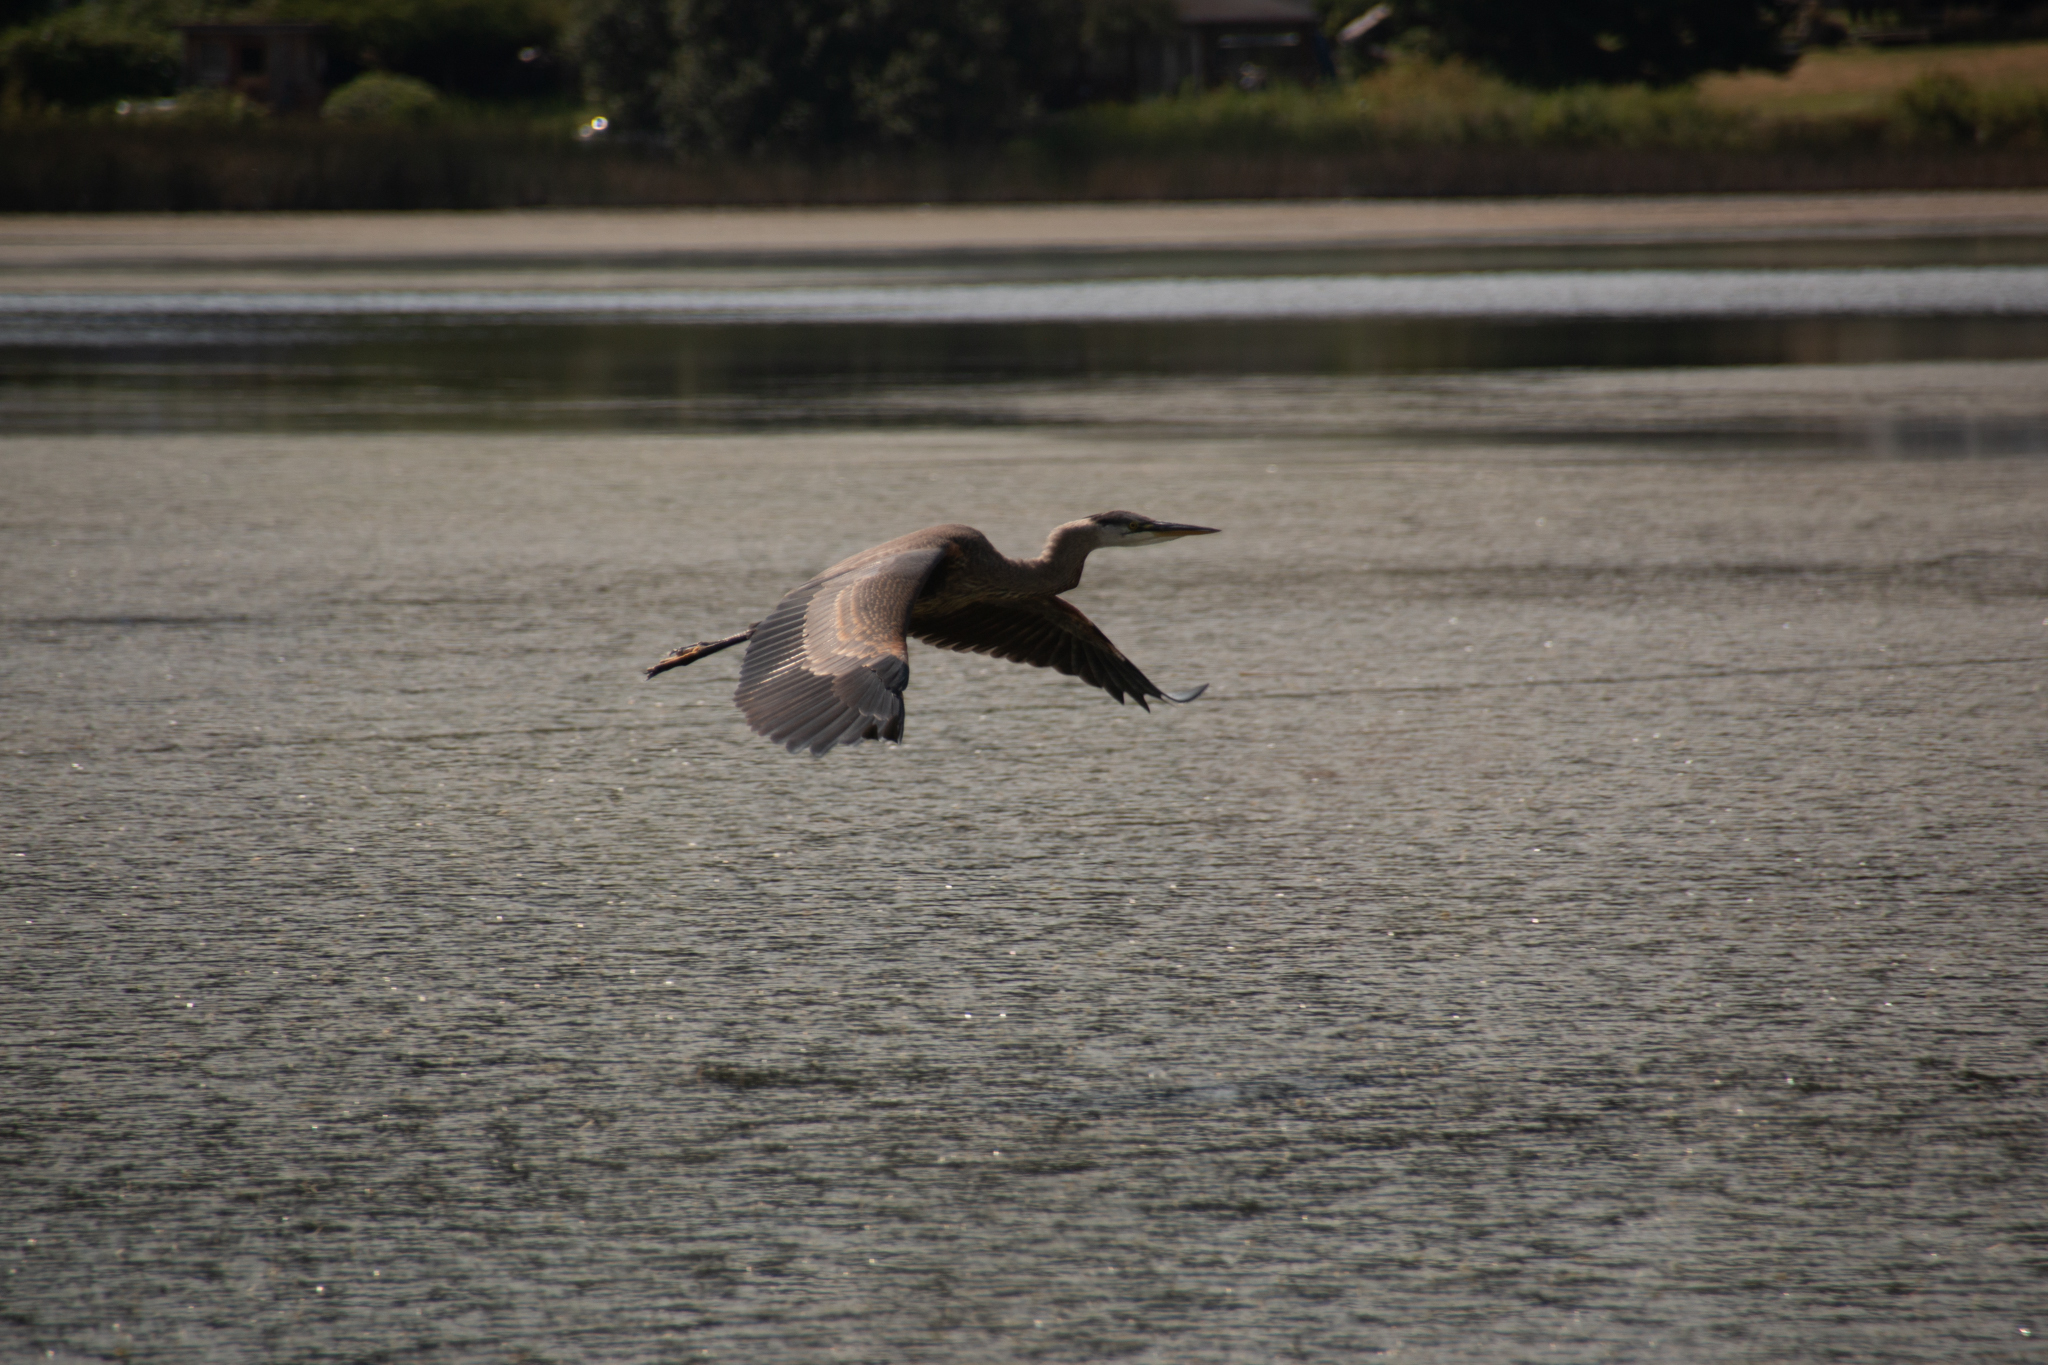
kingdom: Animalia
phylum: Chordata
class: Aves
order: Pelecaniformes
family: Ardeidae
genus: Ardea
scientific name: Ardea herodias
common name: Great blue heron
